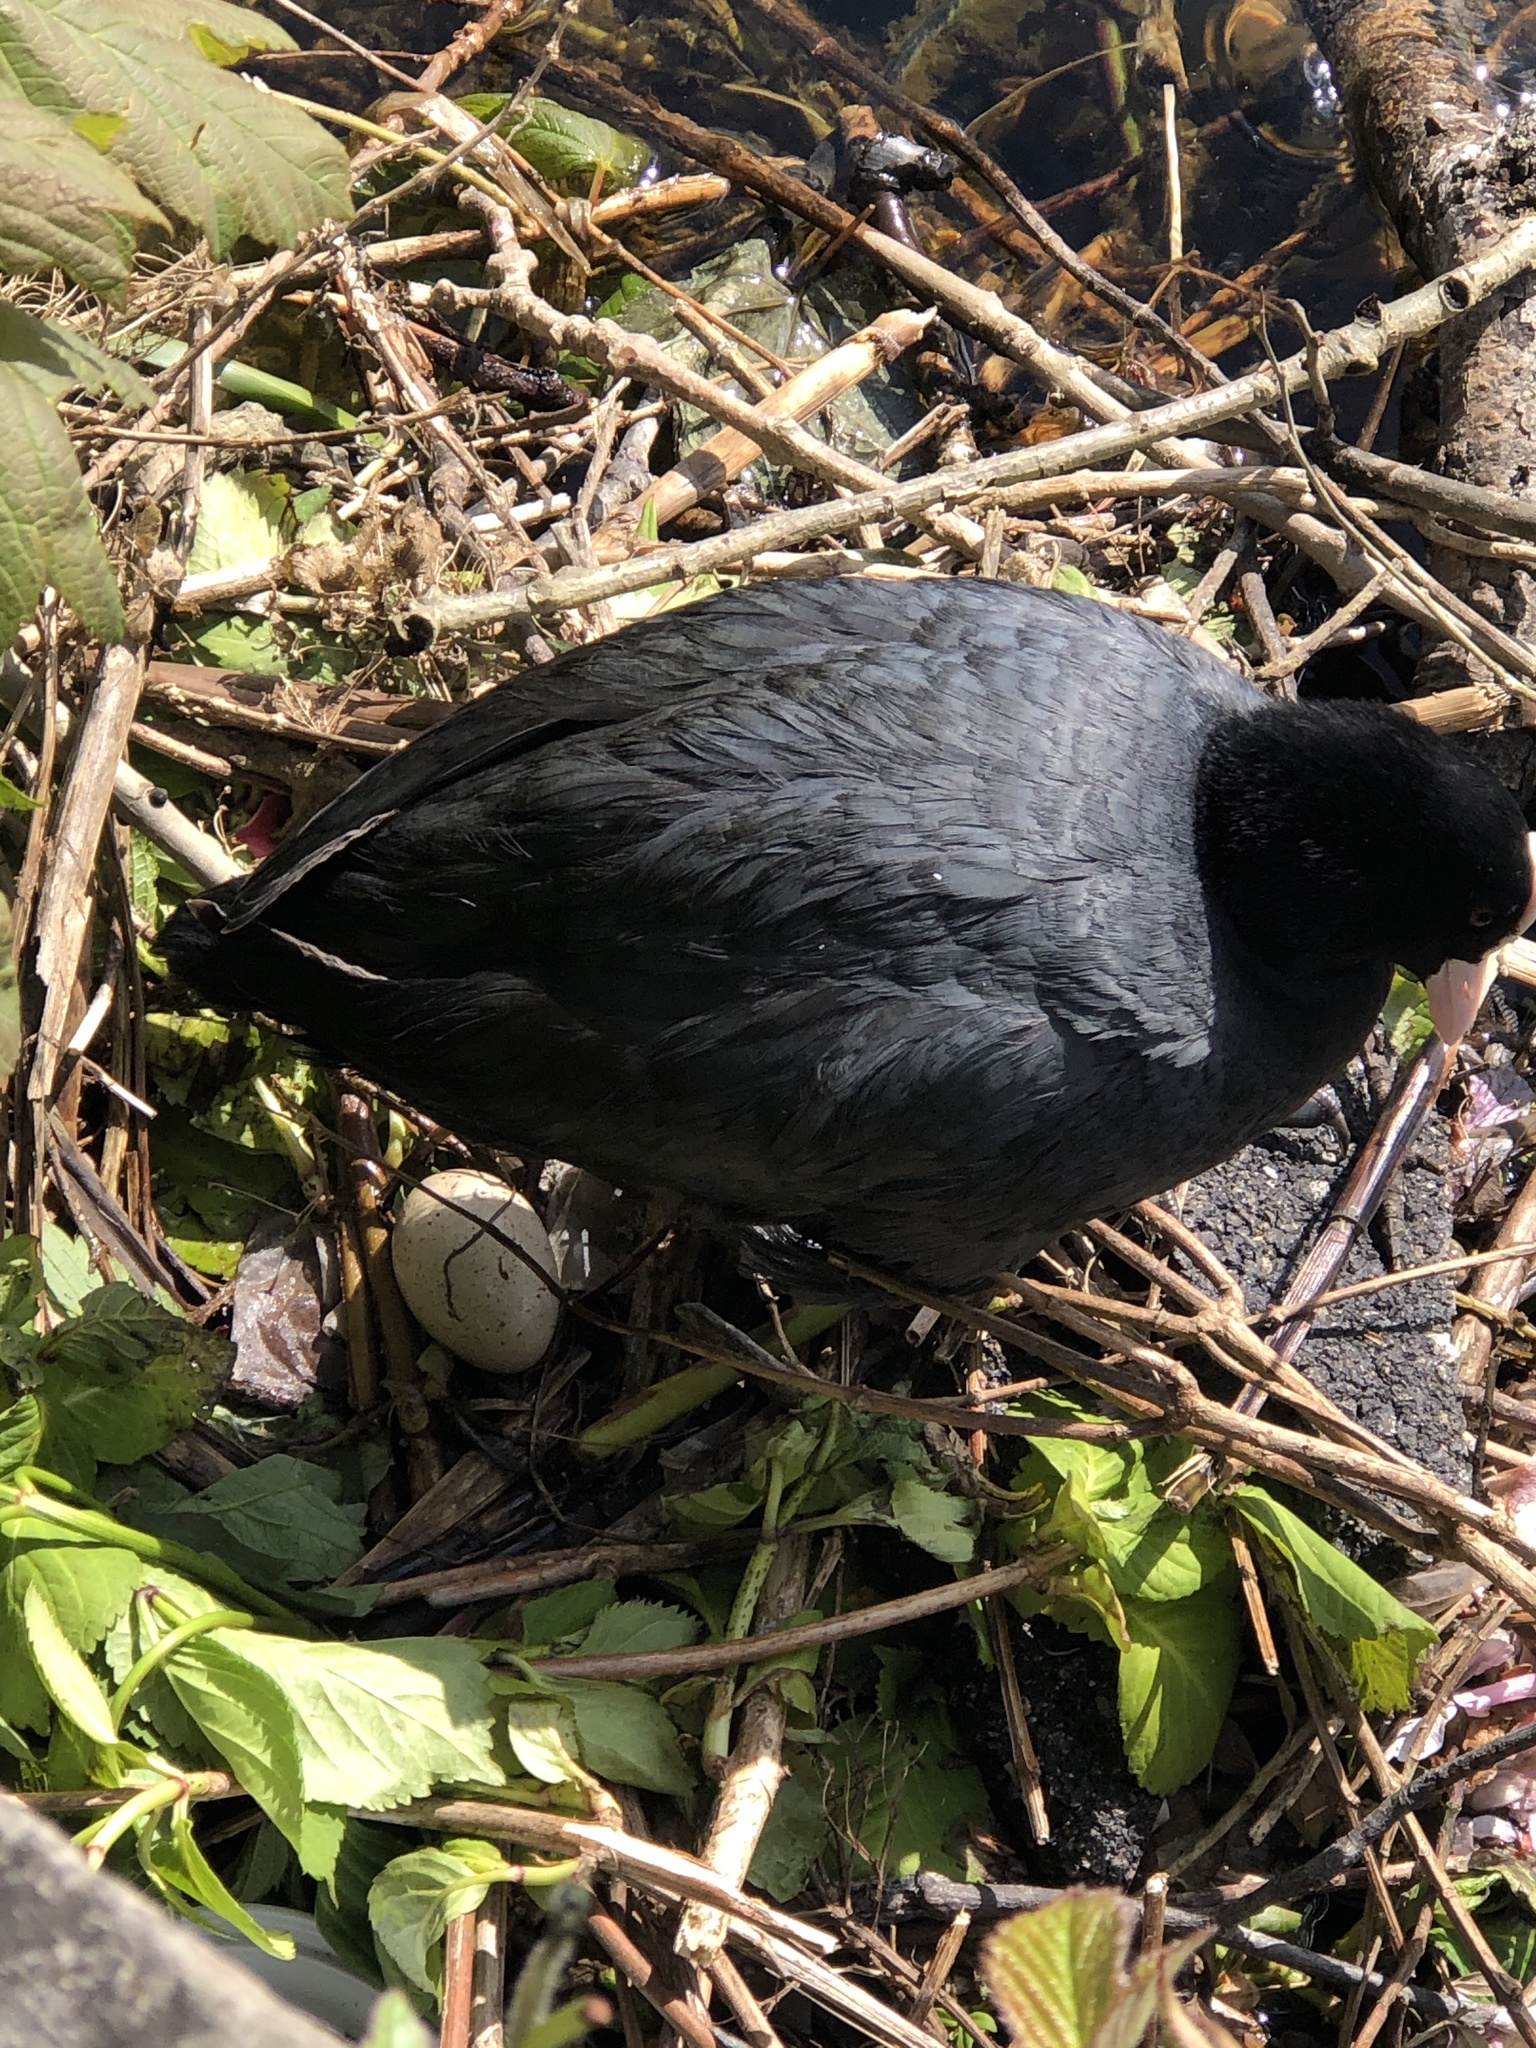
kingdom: Animalia
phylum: Chordata
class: Aves
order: Gruiformes
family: Rallidae
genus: Fulica
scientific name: Fulica atra
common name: Eurasian coot
